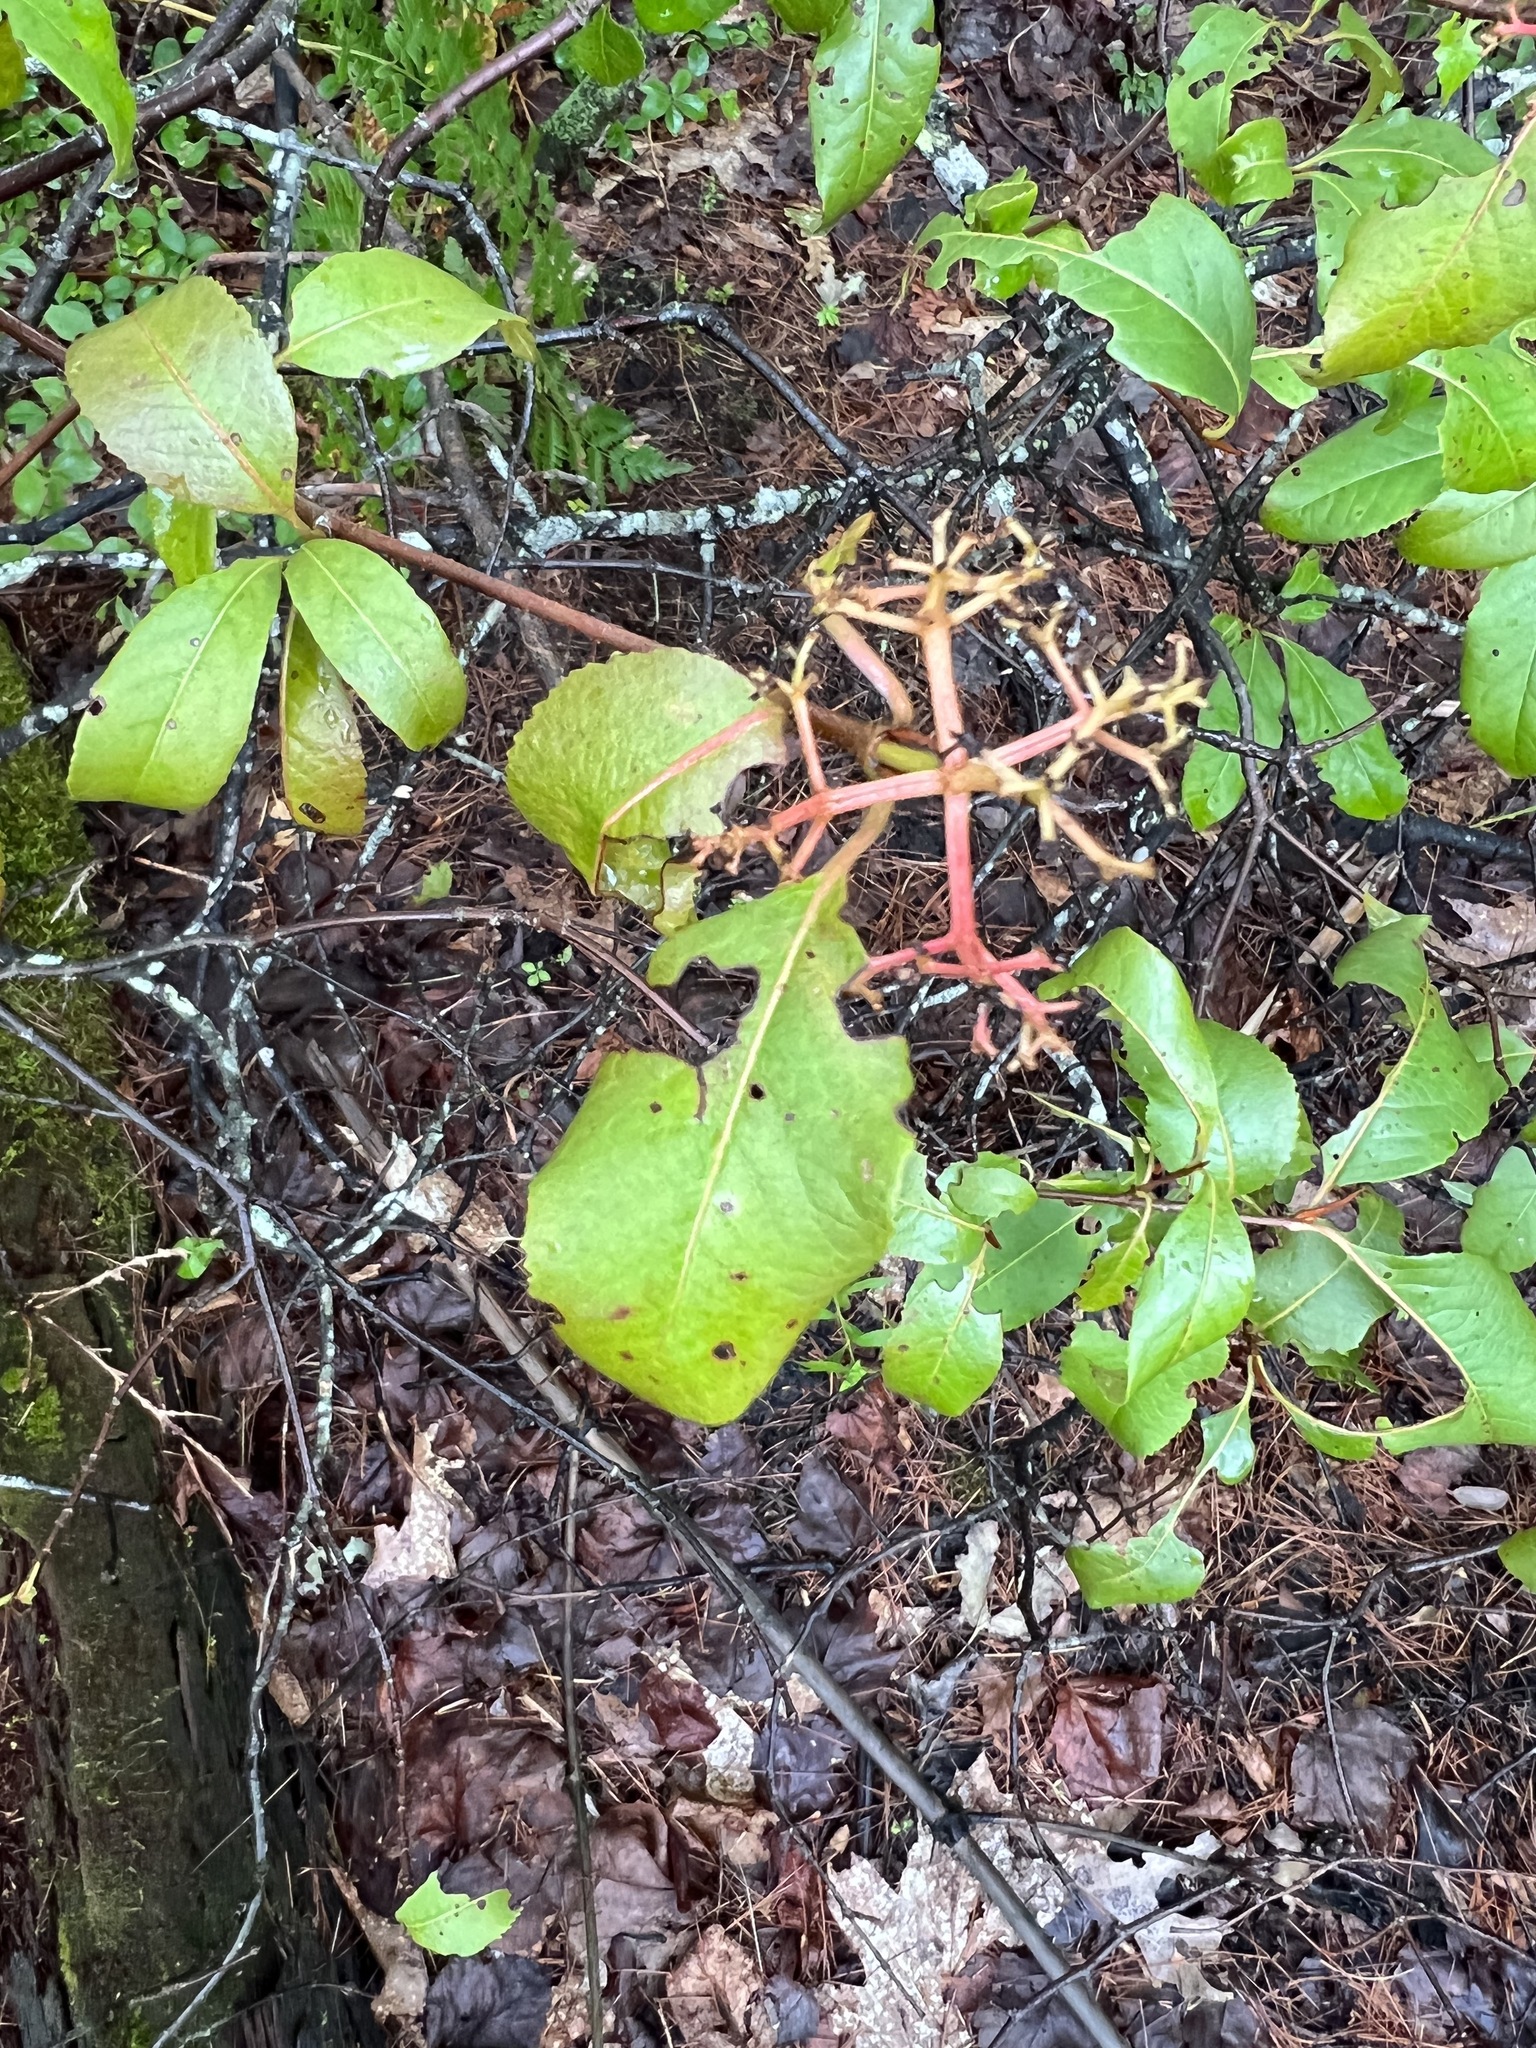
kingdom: Plantae
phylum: Tracheophyta
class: Magnoliopsida
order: Dipsacales
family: Viburnaceae
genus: Viburnum
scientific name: Viburnum cassinoides
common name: Swamp haw
